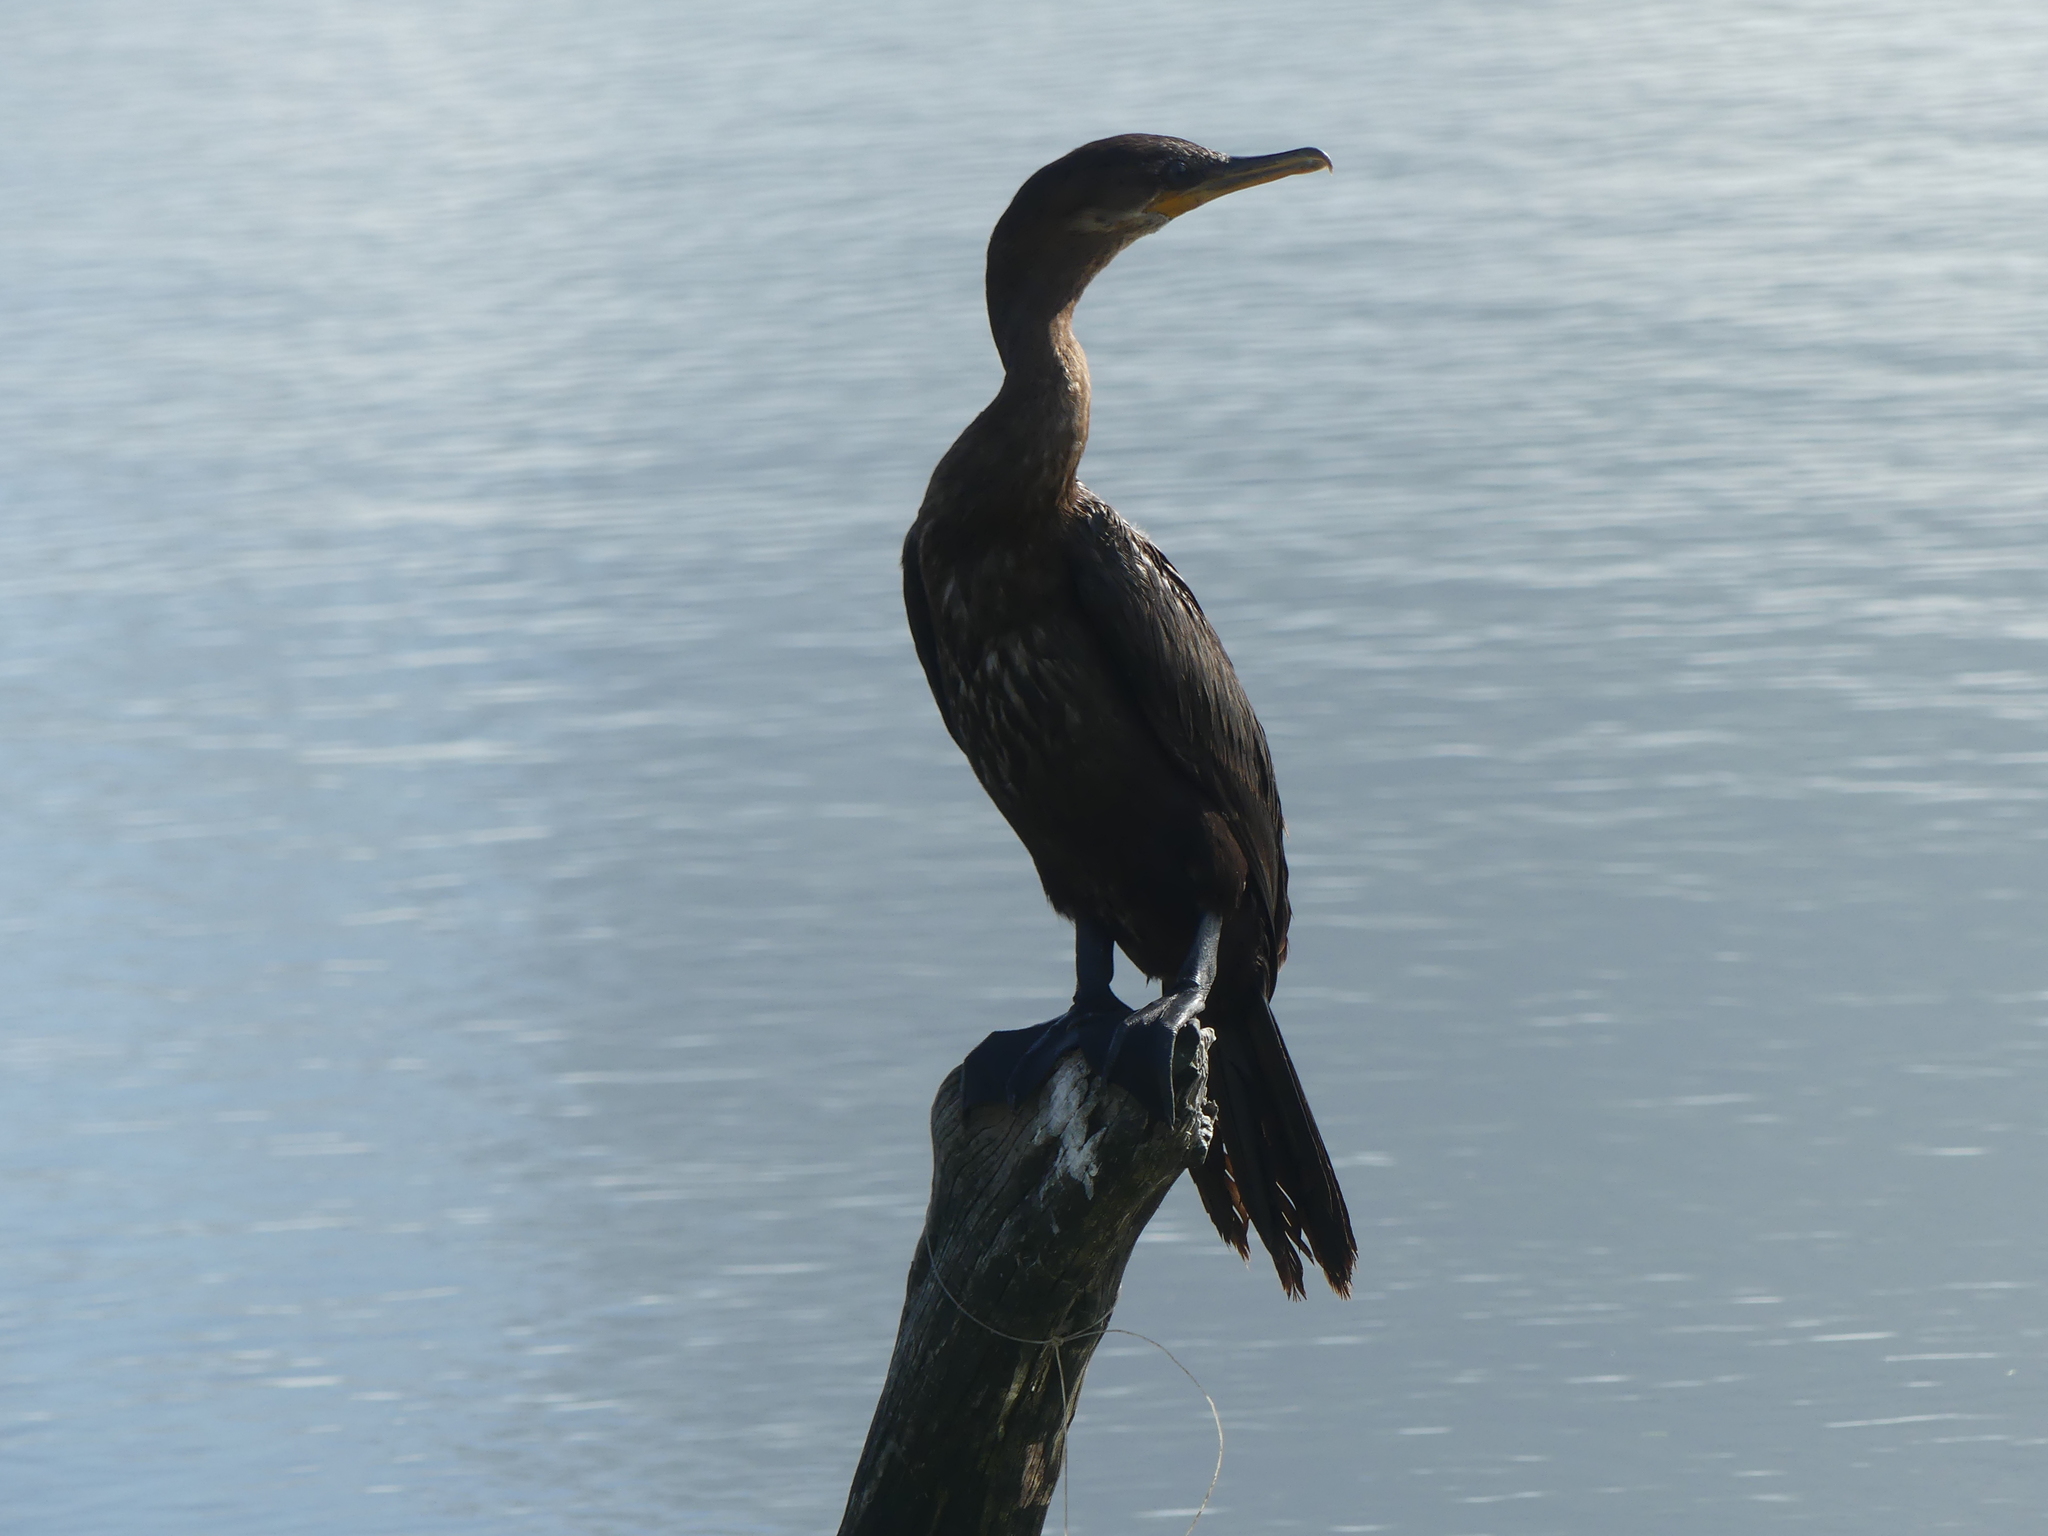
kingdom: Animalia
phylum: Chordata
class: Aves
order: Suliformes
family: Phalacrocoracidae
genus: Phalacrocorax
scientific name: Phalacrocorax brasilianus
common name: Neotropic cormorant
